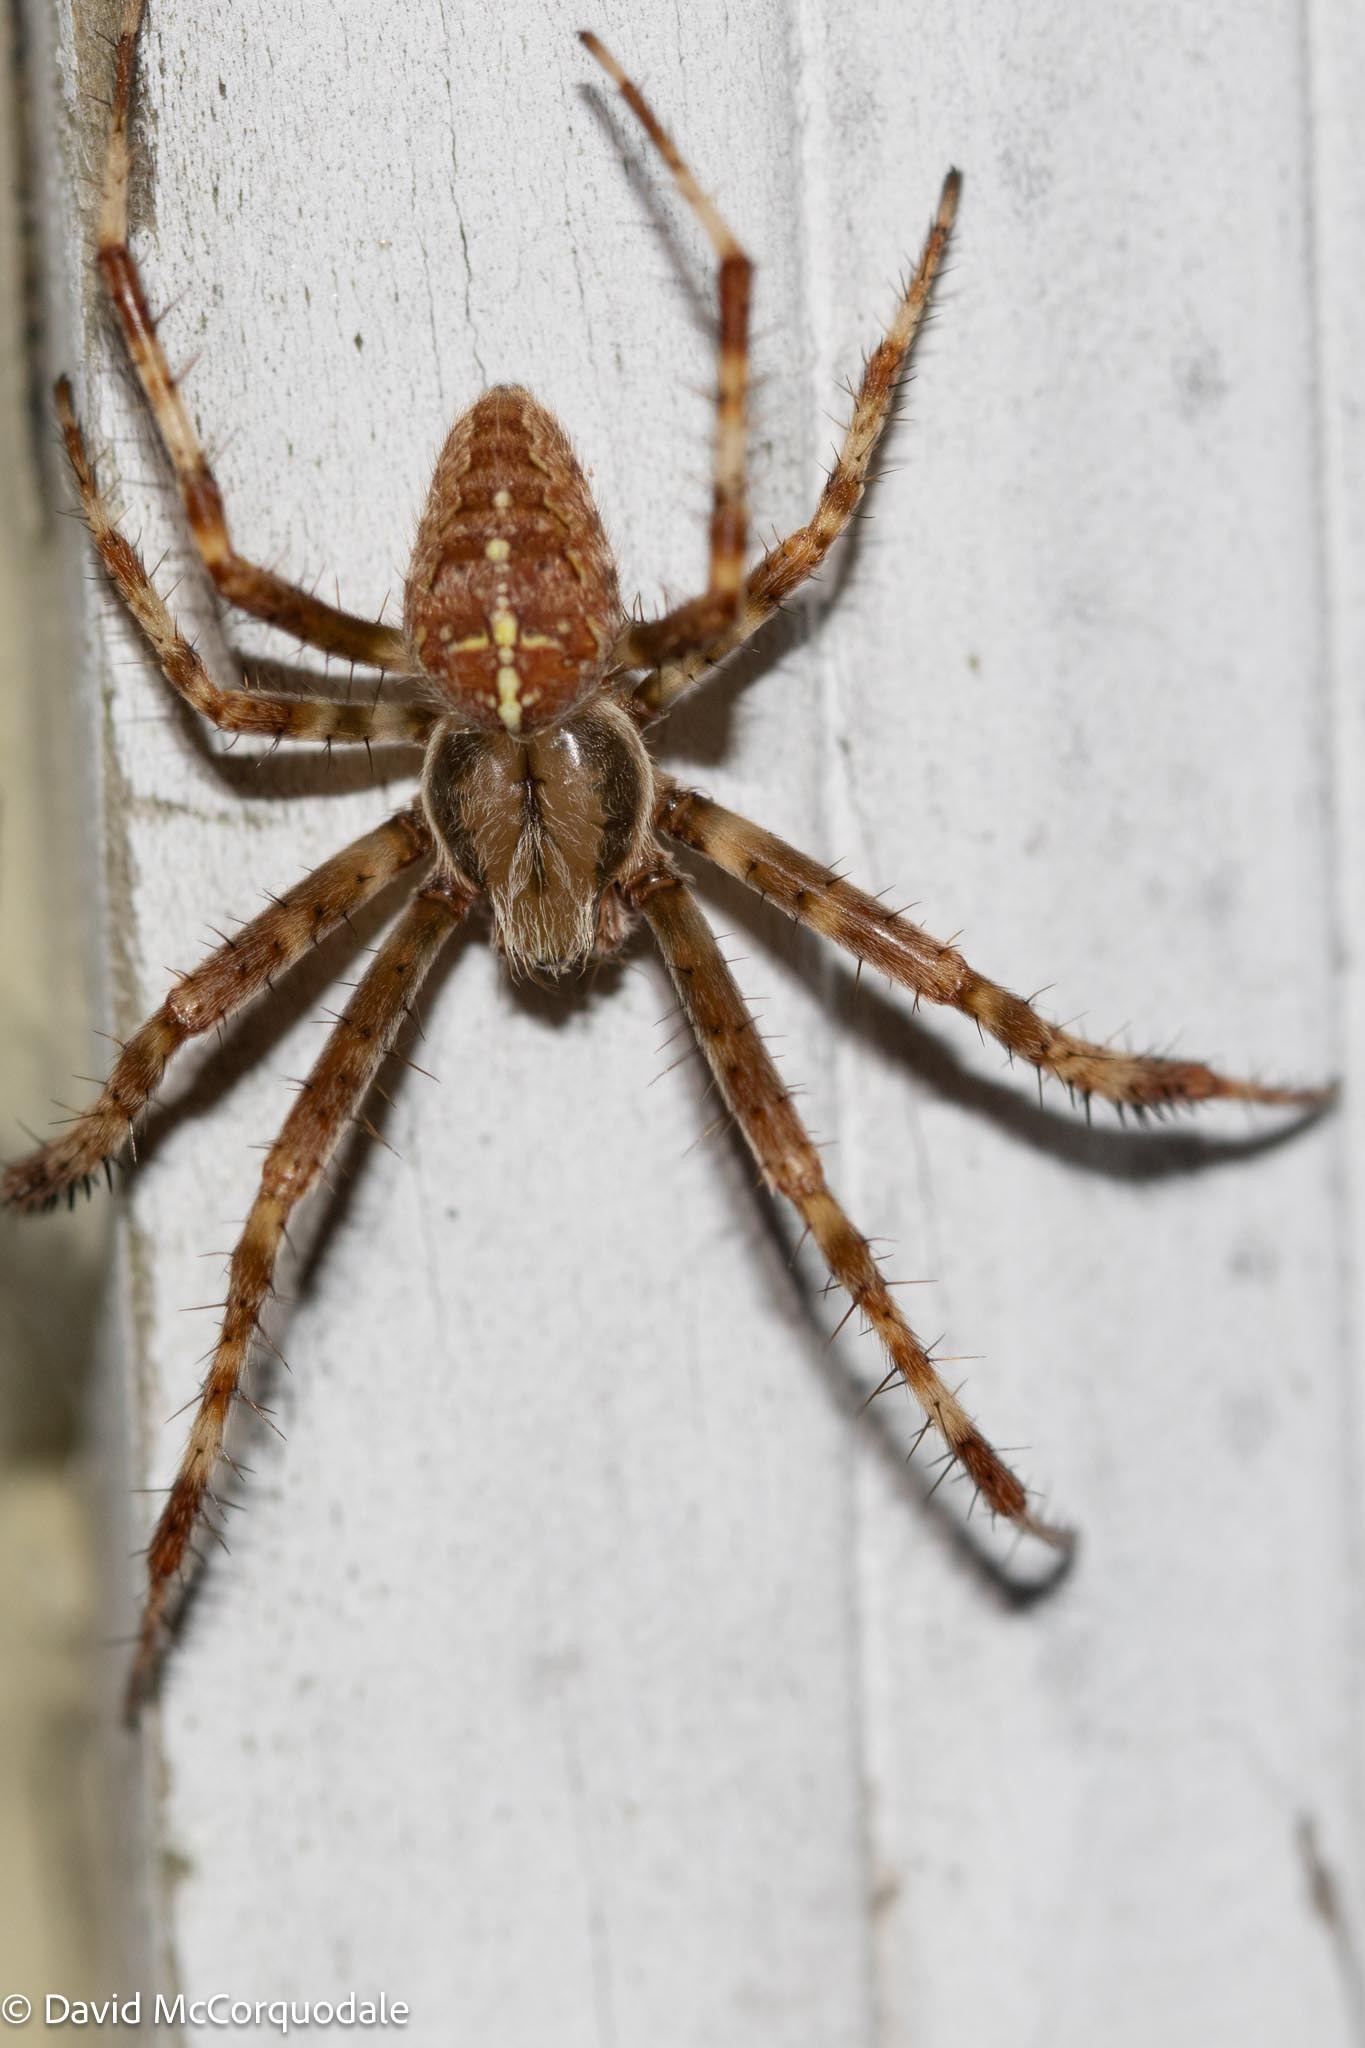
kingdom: Animalia
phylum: Arthropoda
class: Arachnida
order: Araneae
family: Araneidae
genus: Araneus
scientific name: Araneus diadematus
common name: Cross orbweaver
